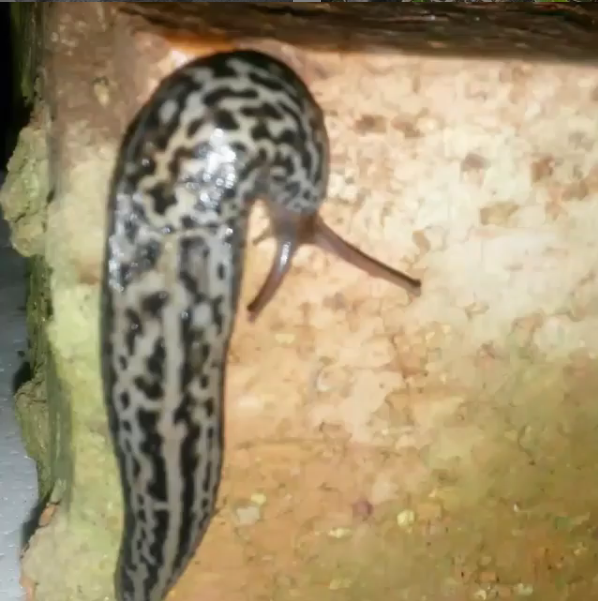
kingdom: Animalia
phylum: Mollusca
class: Gastropoda
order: Stylommatophora
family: Limacidae
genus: Limax
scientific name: Limax maximus
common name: Great grey slug
